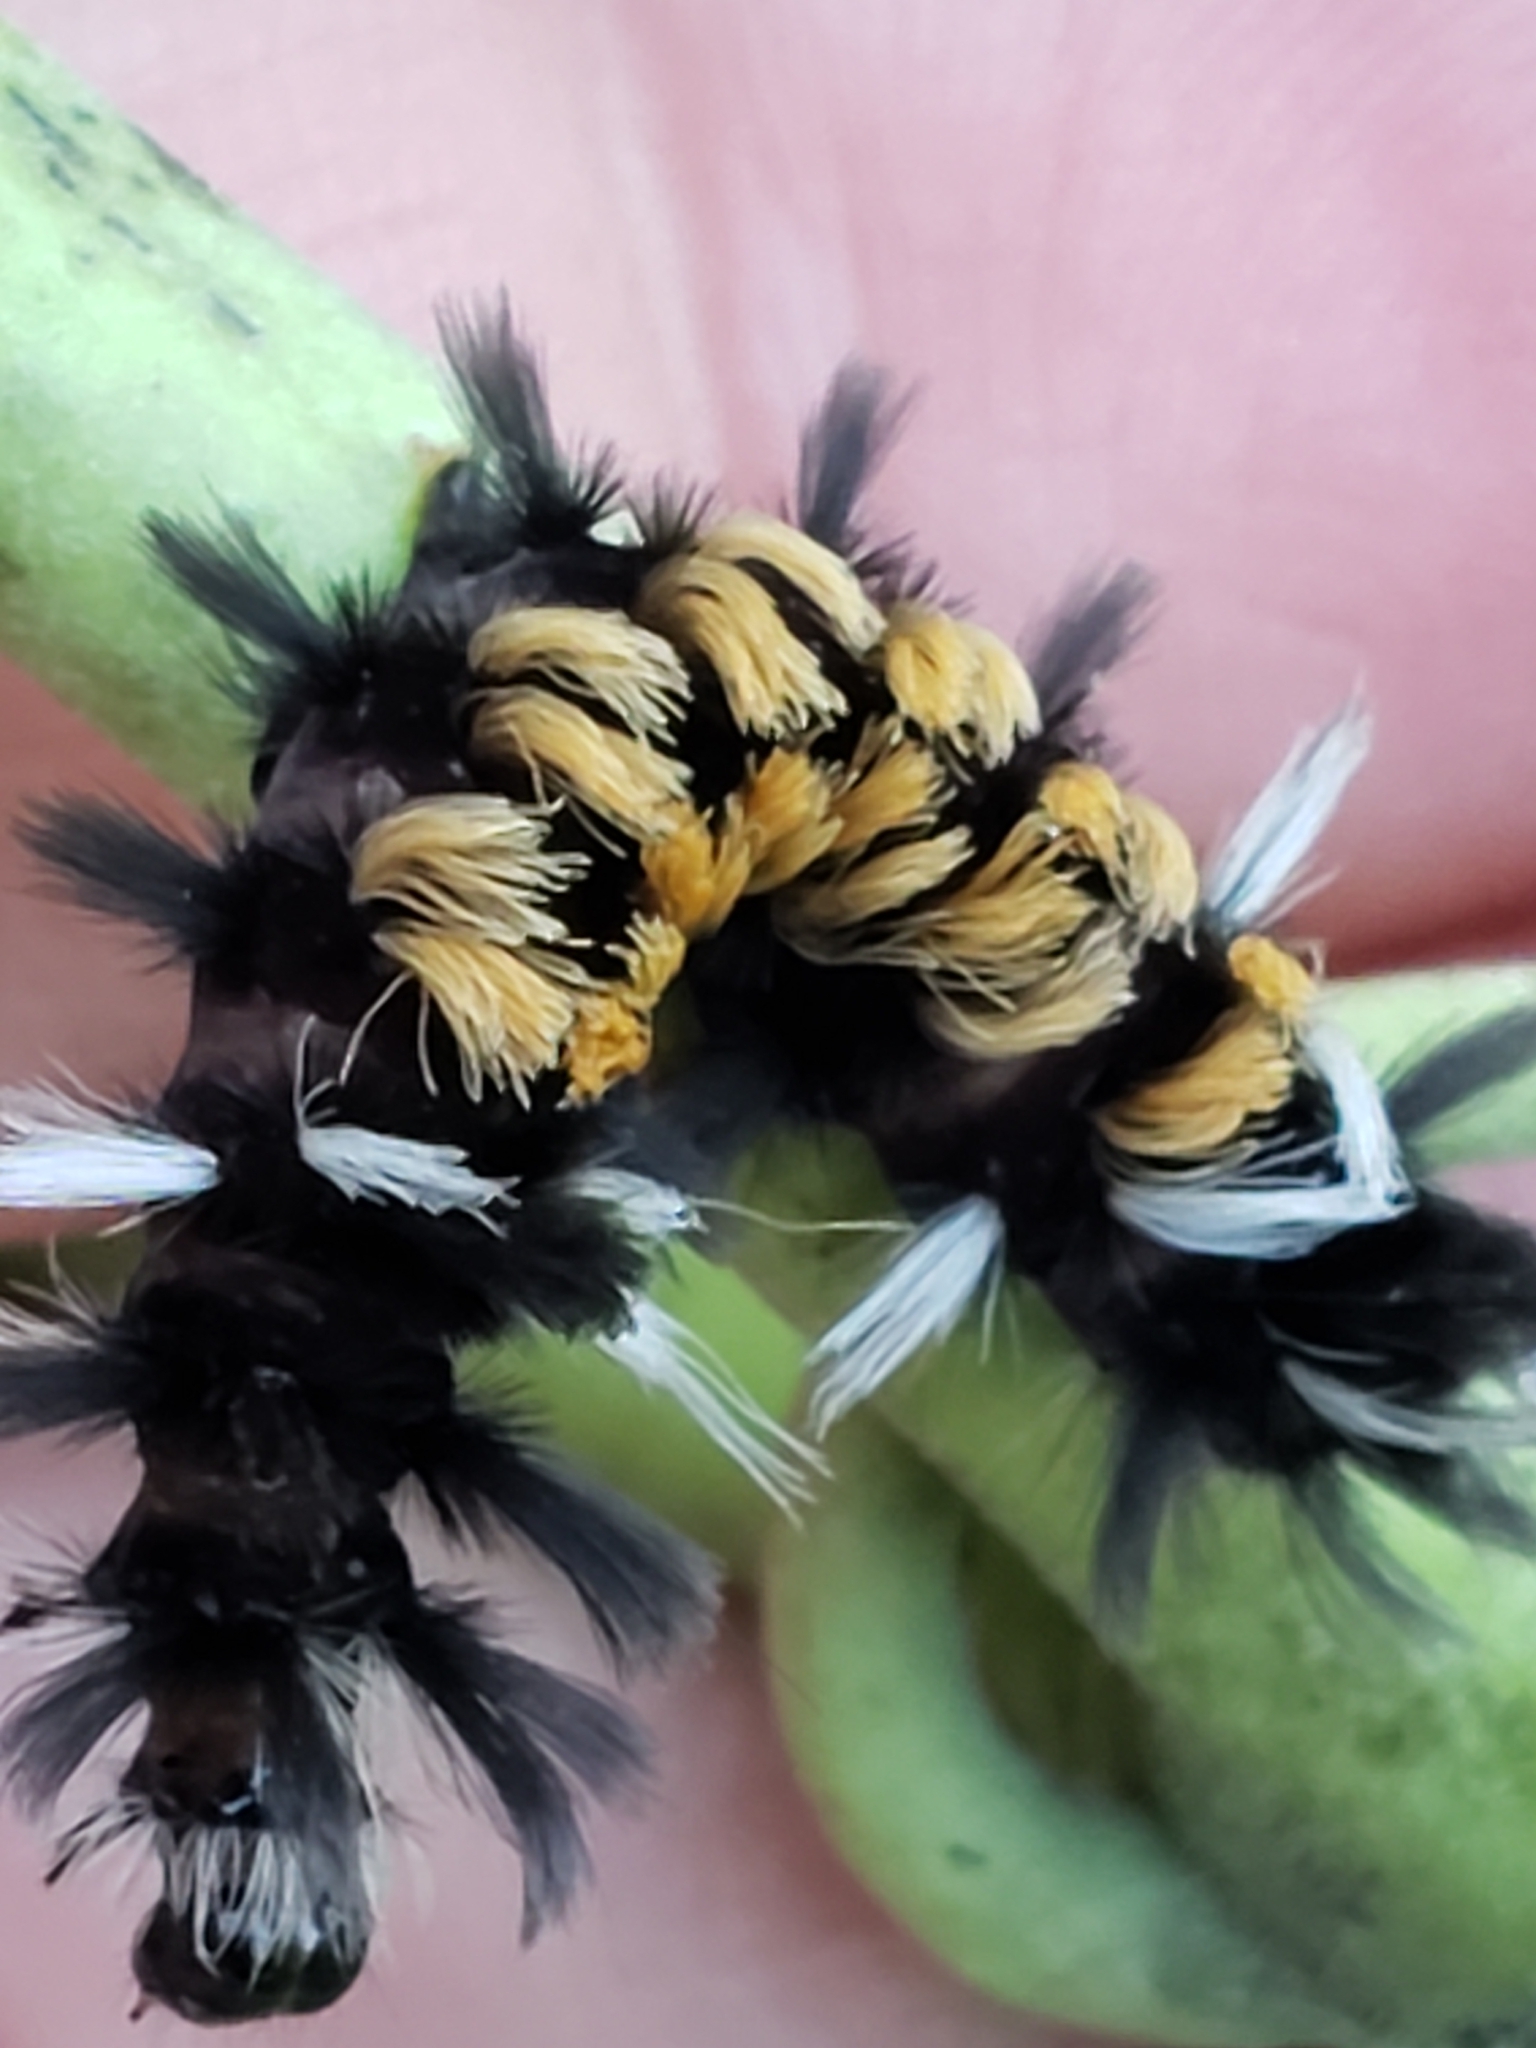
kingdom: Animalia
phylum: Arthropoda
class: Insecta
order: Lepidoptera
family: Erebidae
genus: Euchaetes
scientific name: Euchaetes egle
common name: Milkweed tussock moth
